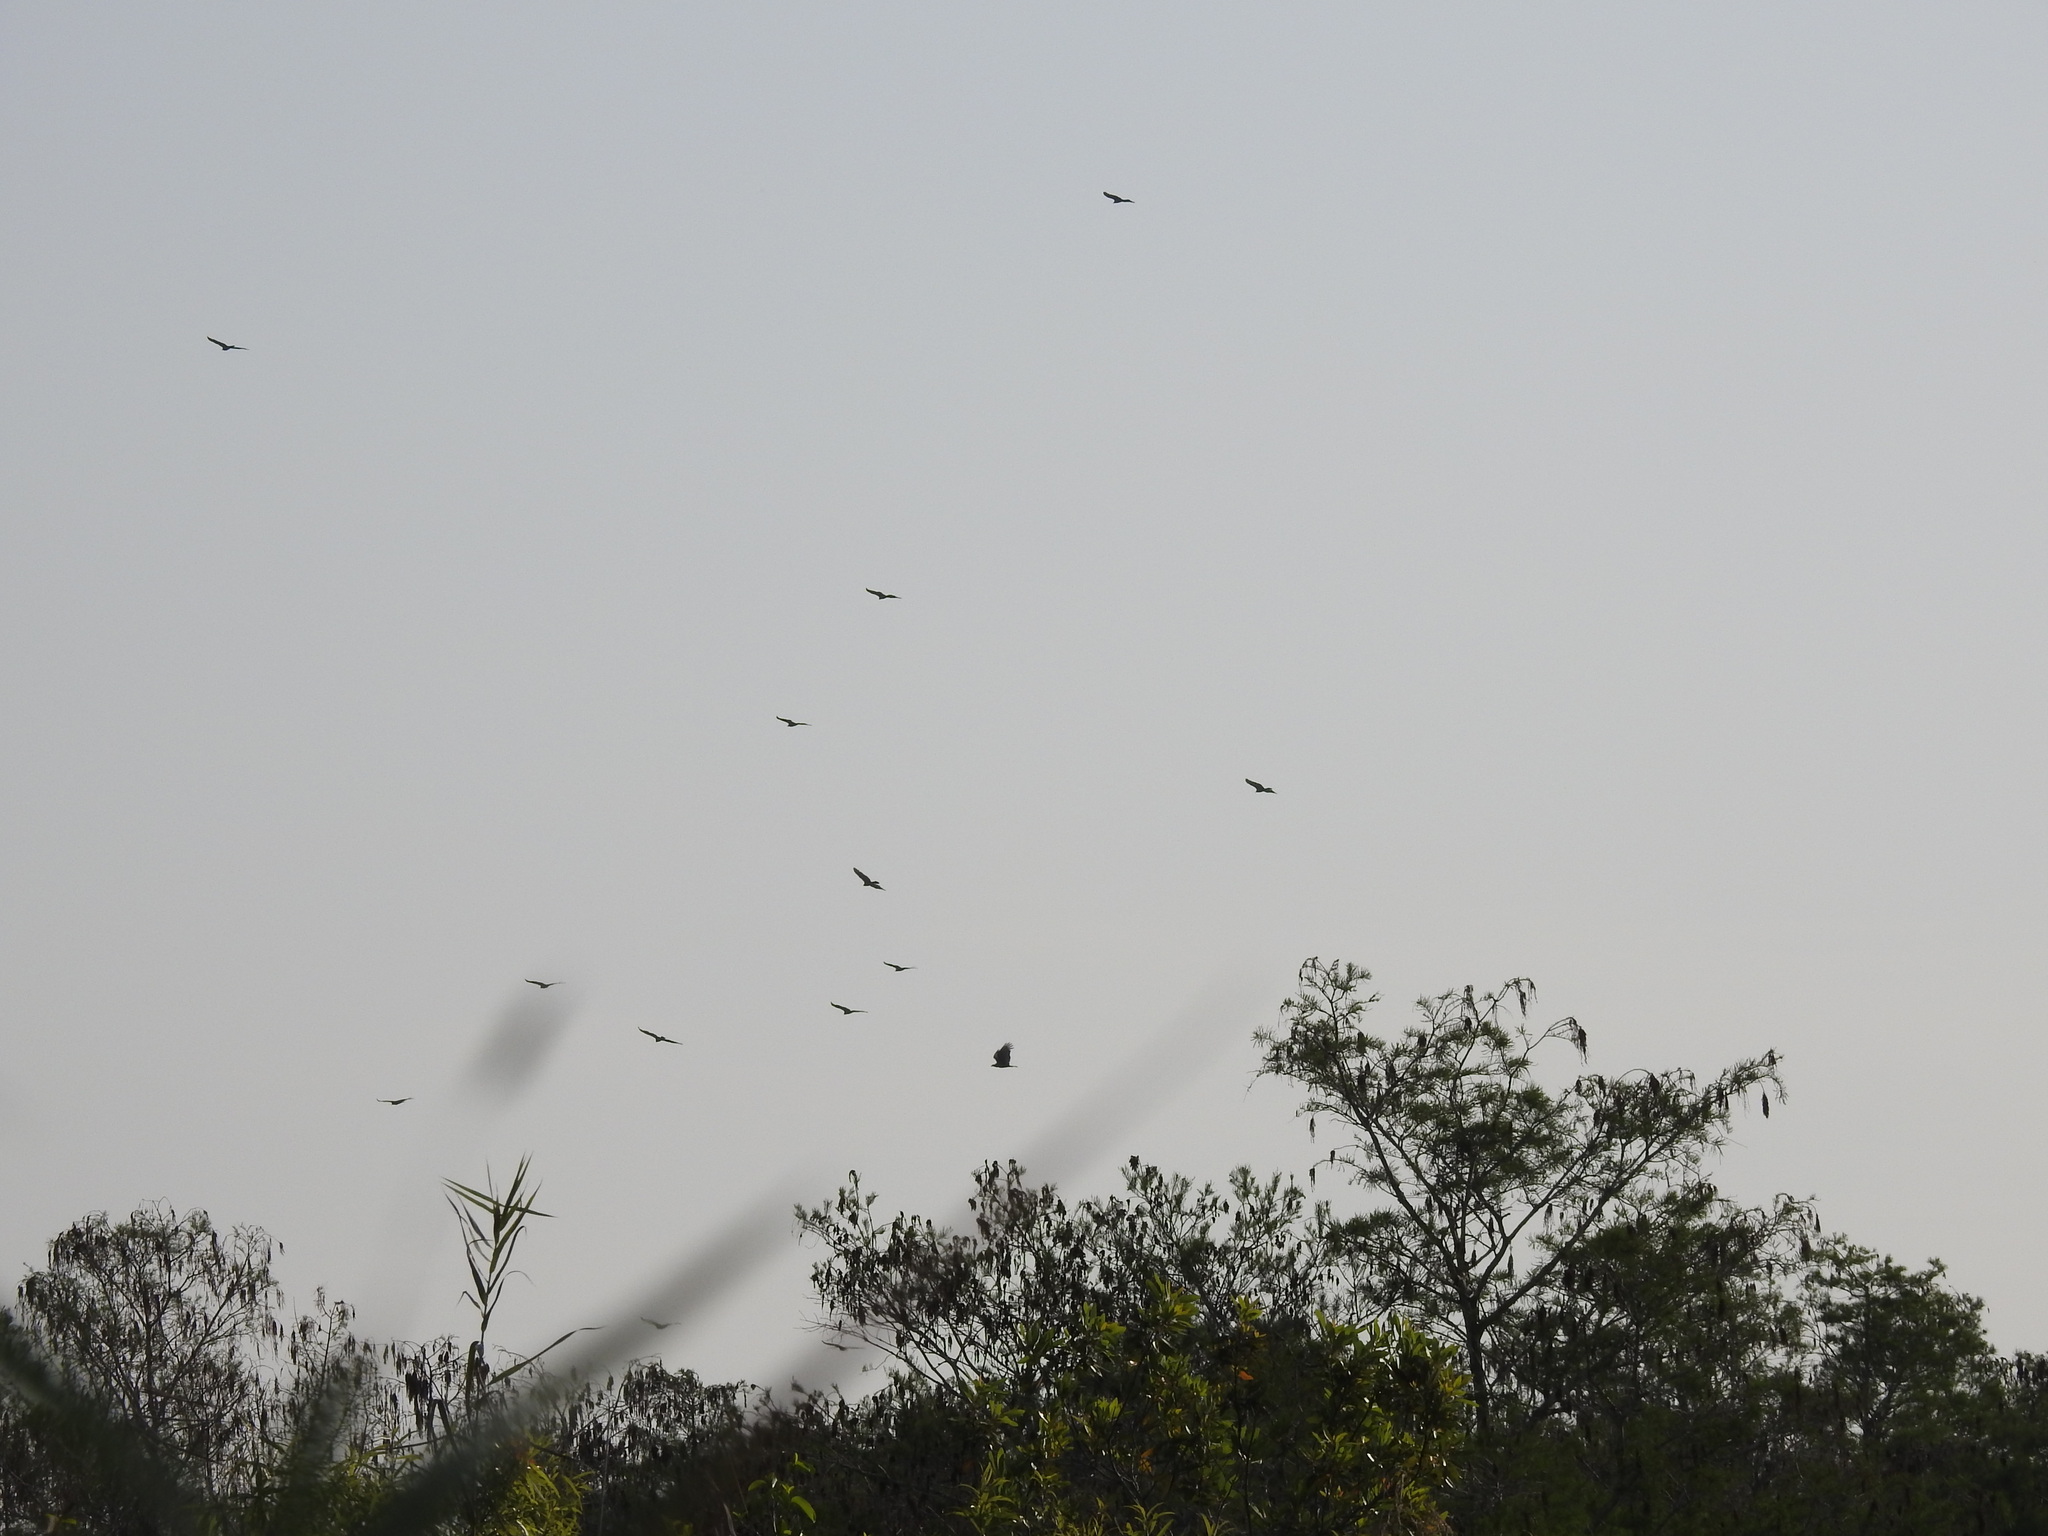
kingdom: Animalia
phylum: Chordata
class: Aves
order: Accipitriformes
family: Cathartidae
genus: Cathartes
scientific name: Cathartes aura
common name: Turkey vulture
